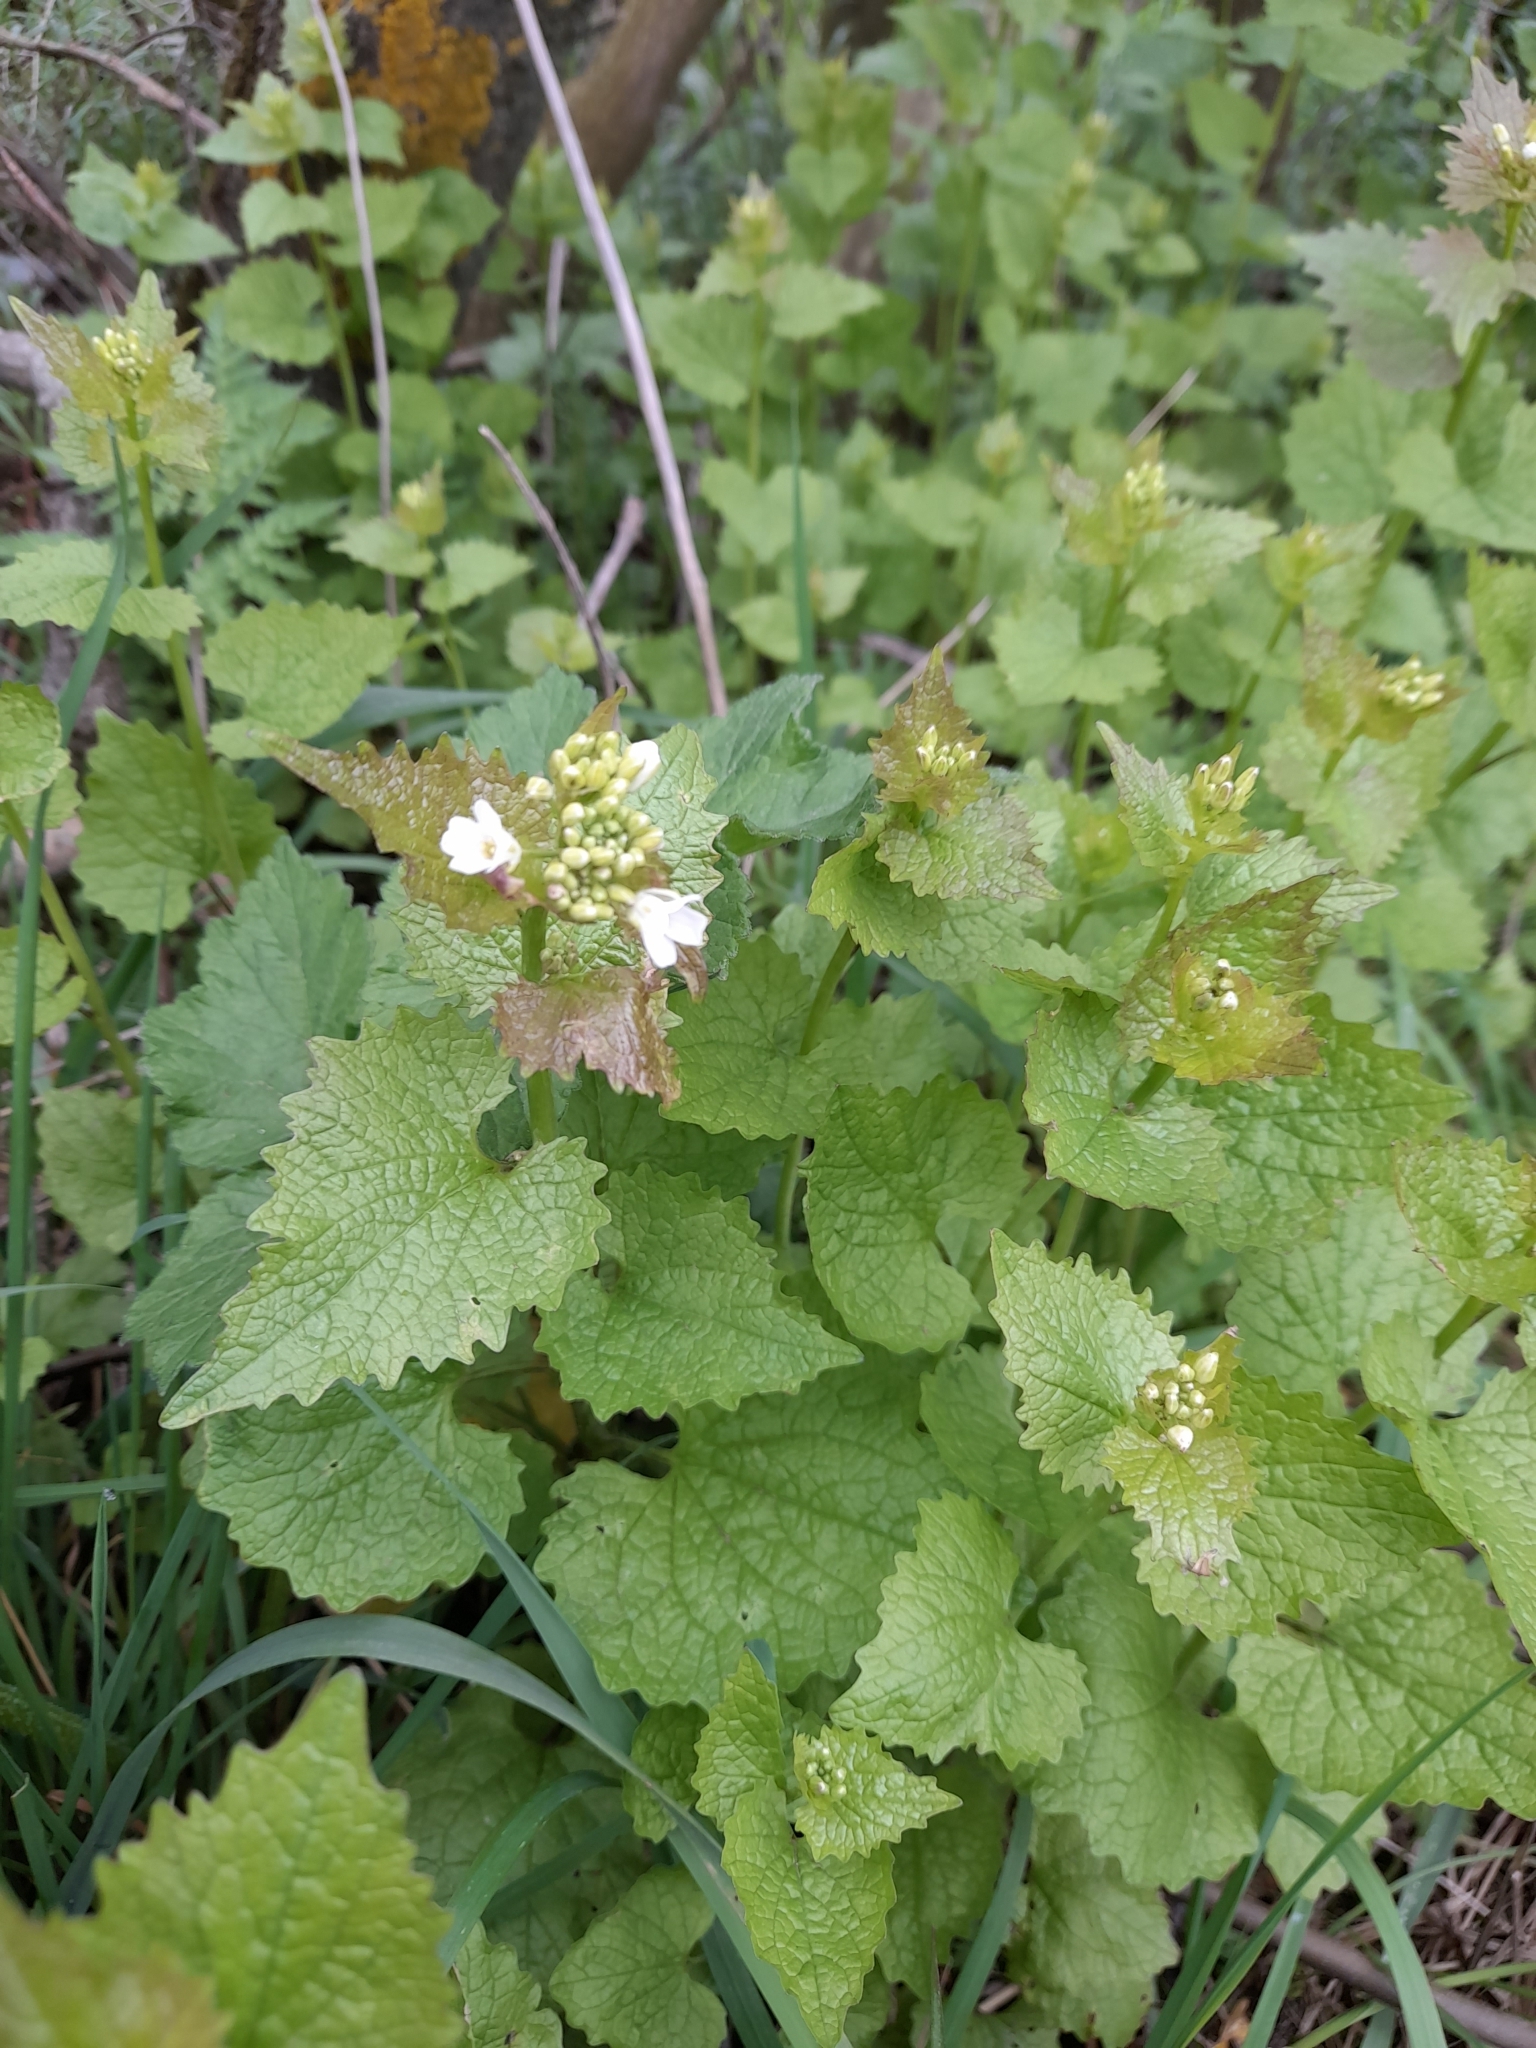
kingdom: Plantae
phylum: Tracheophyta
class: Magnoliopsida
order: Brassicales
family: Brassicaceae
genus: Alliaria
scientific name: Alliaria petiolata
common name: Garlic mustard
